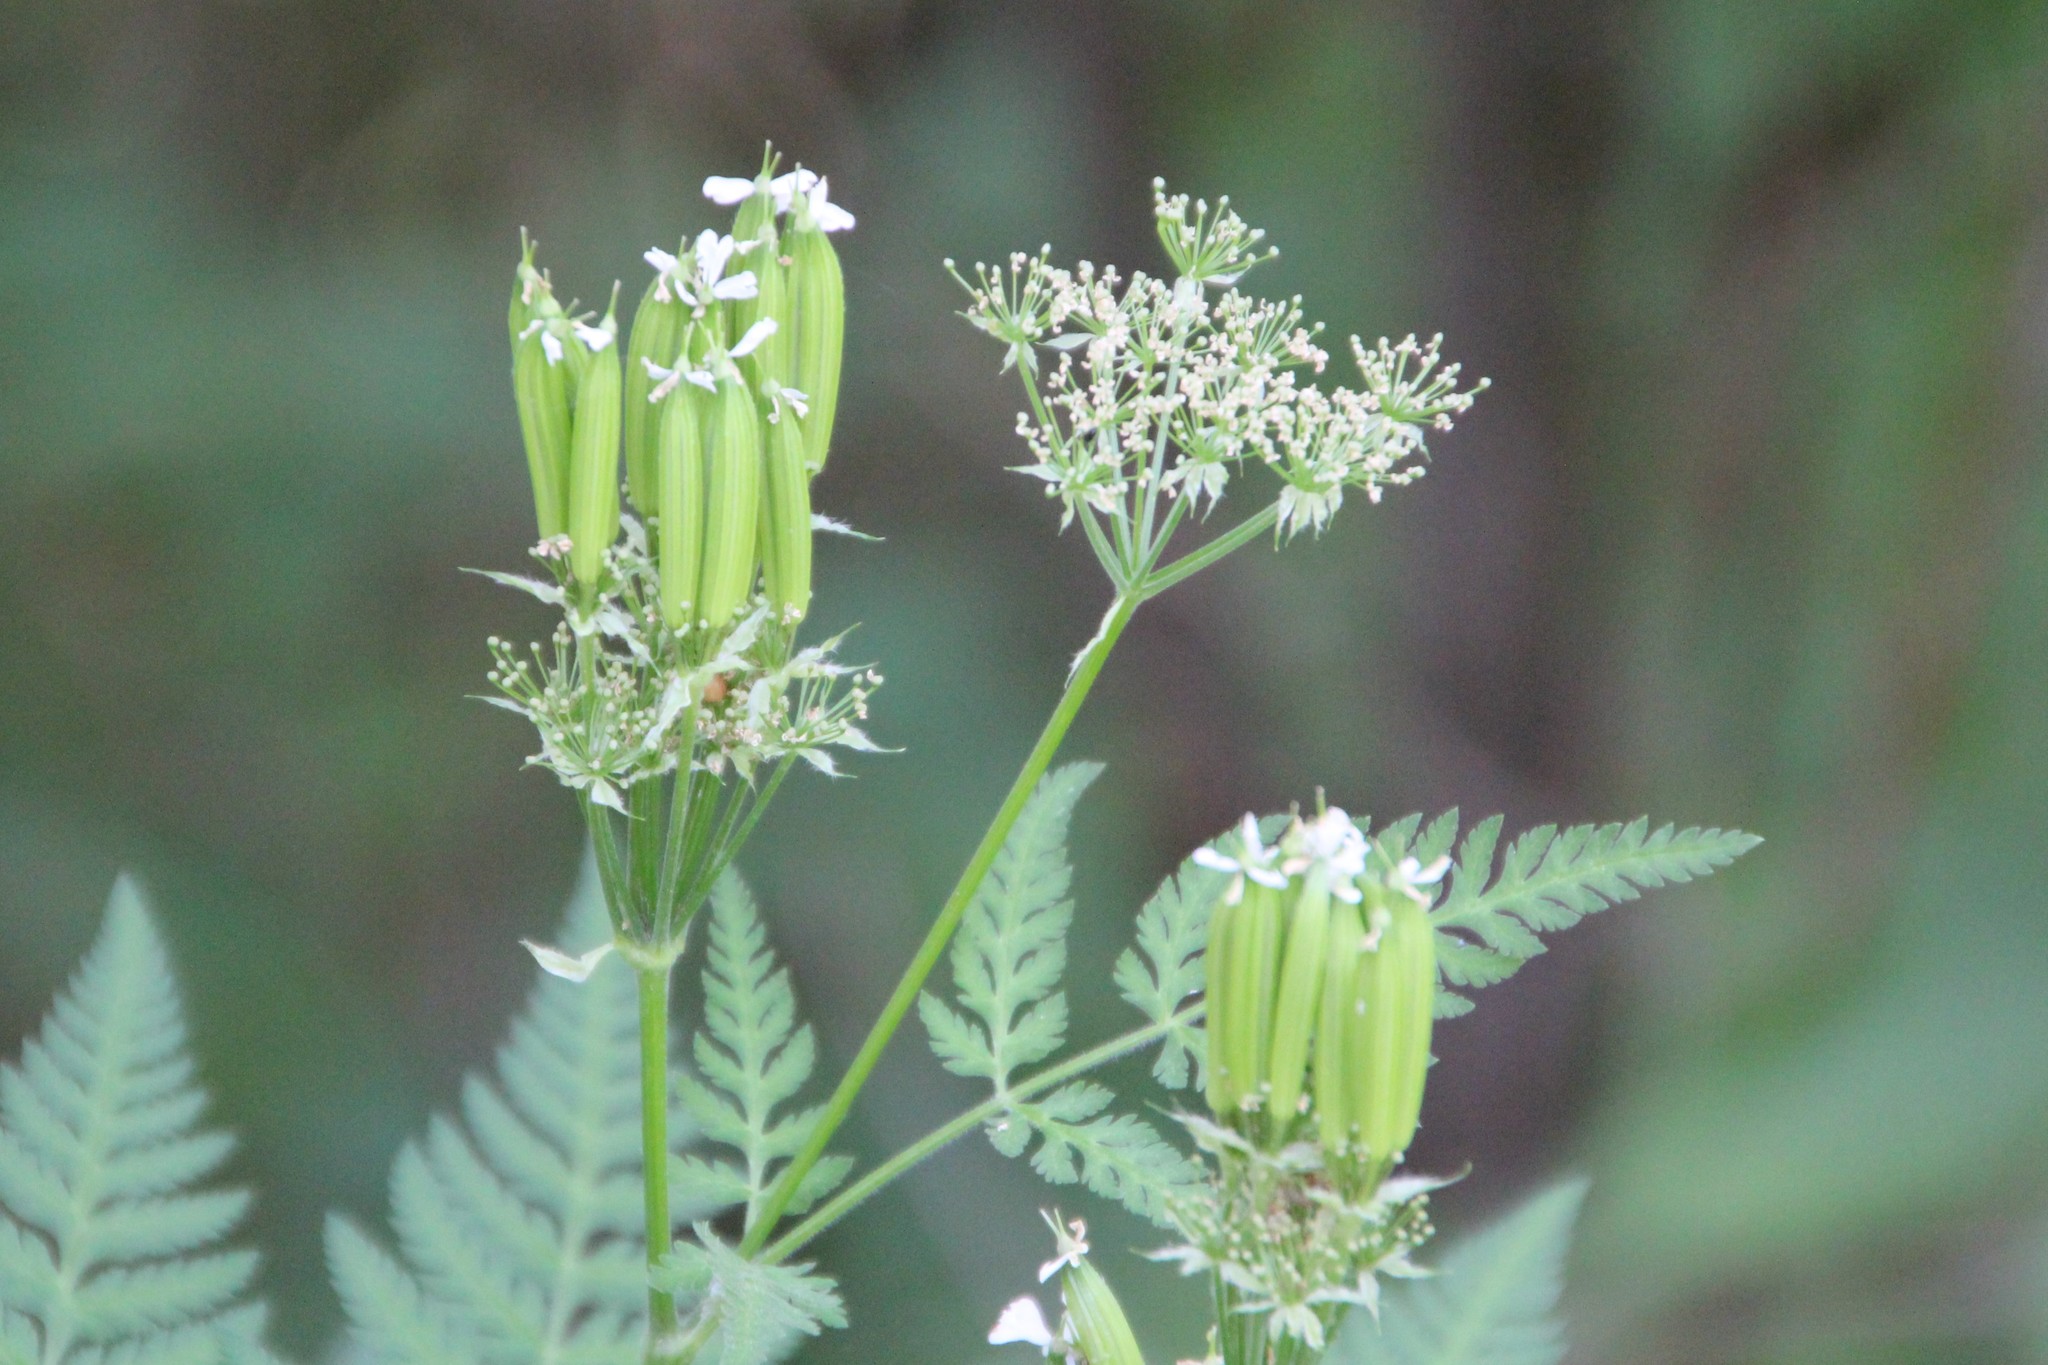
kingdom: Plantae
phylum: Tracheophyta
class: Magnoliopsida
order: Apiales
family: Apiaceae
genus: Myrrhis
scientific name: Myrrhis odorata
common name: Sweet cicely
